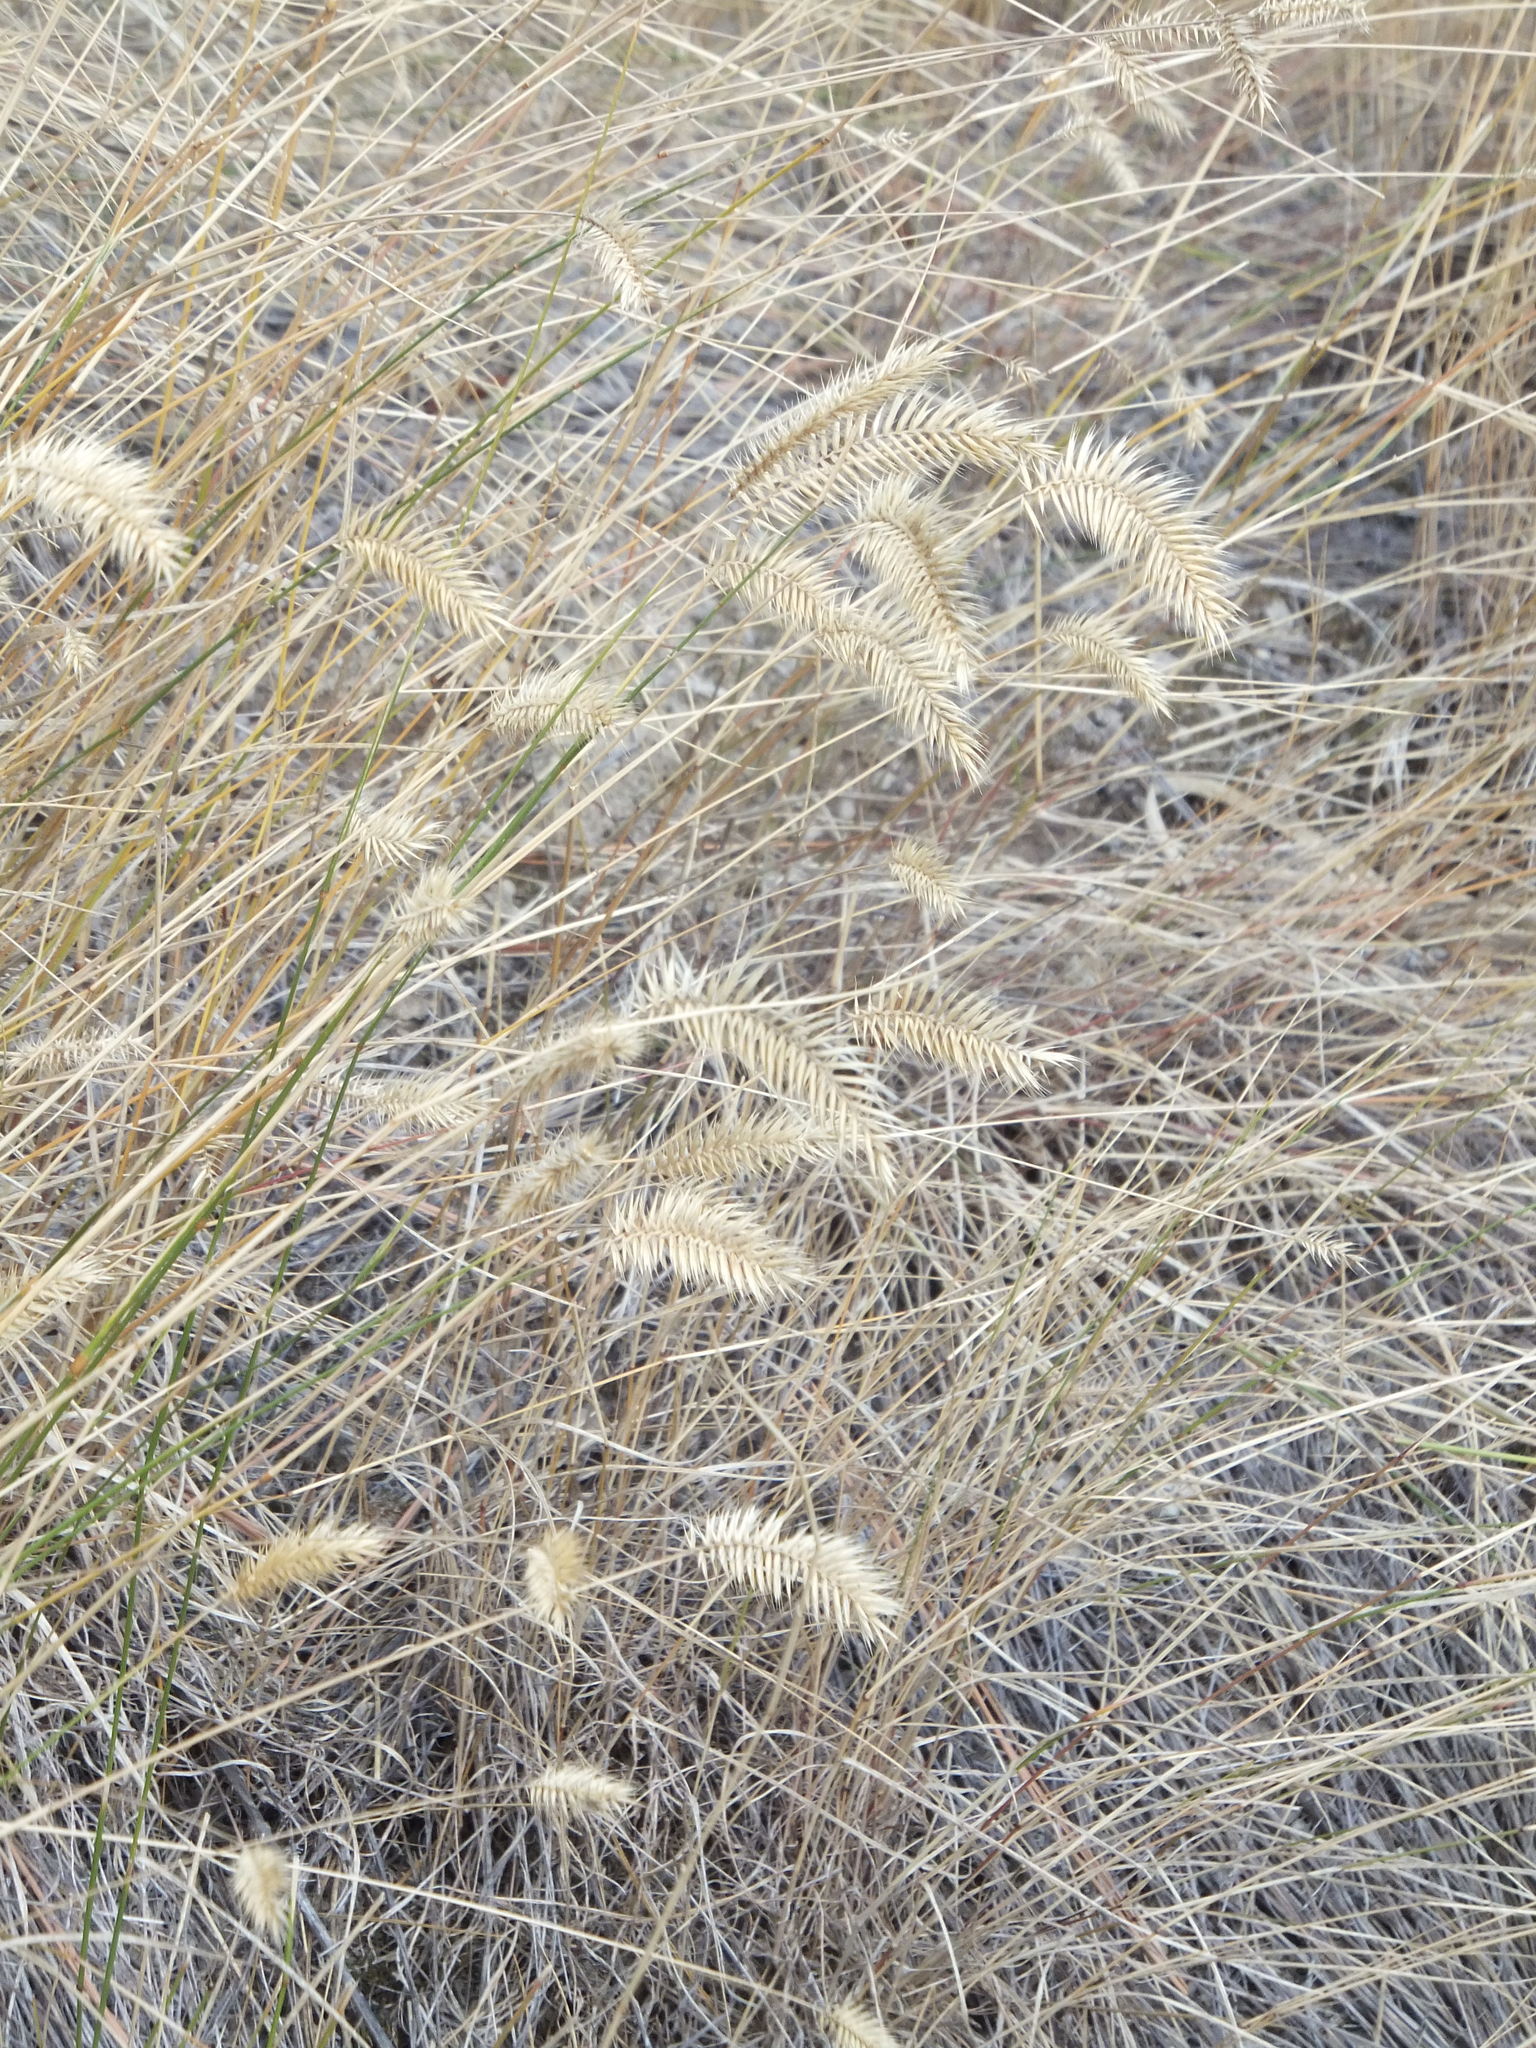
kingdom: Plantae
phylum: Tracheophyta
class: Liliopsida
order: Poales
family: Poaceae
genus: Agropyron
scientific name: Agropyron cristatum
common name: Crested wheatgrass
